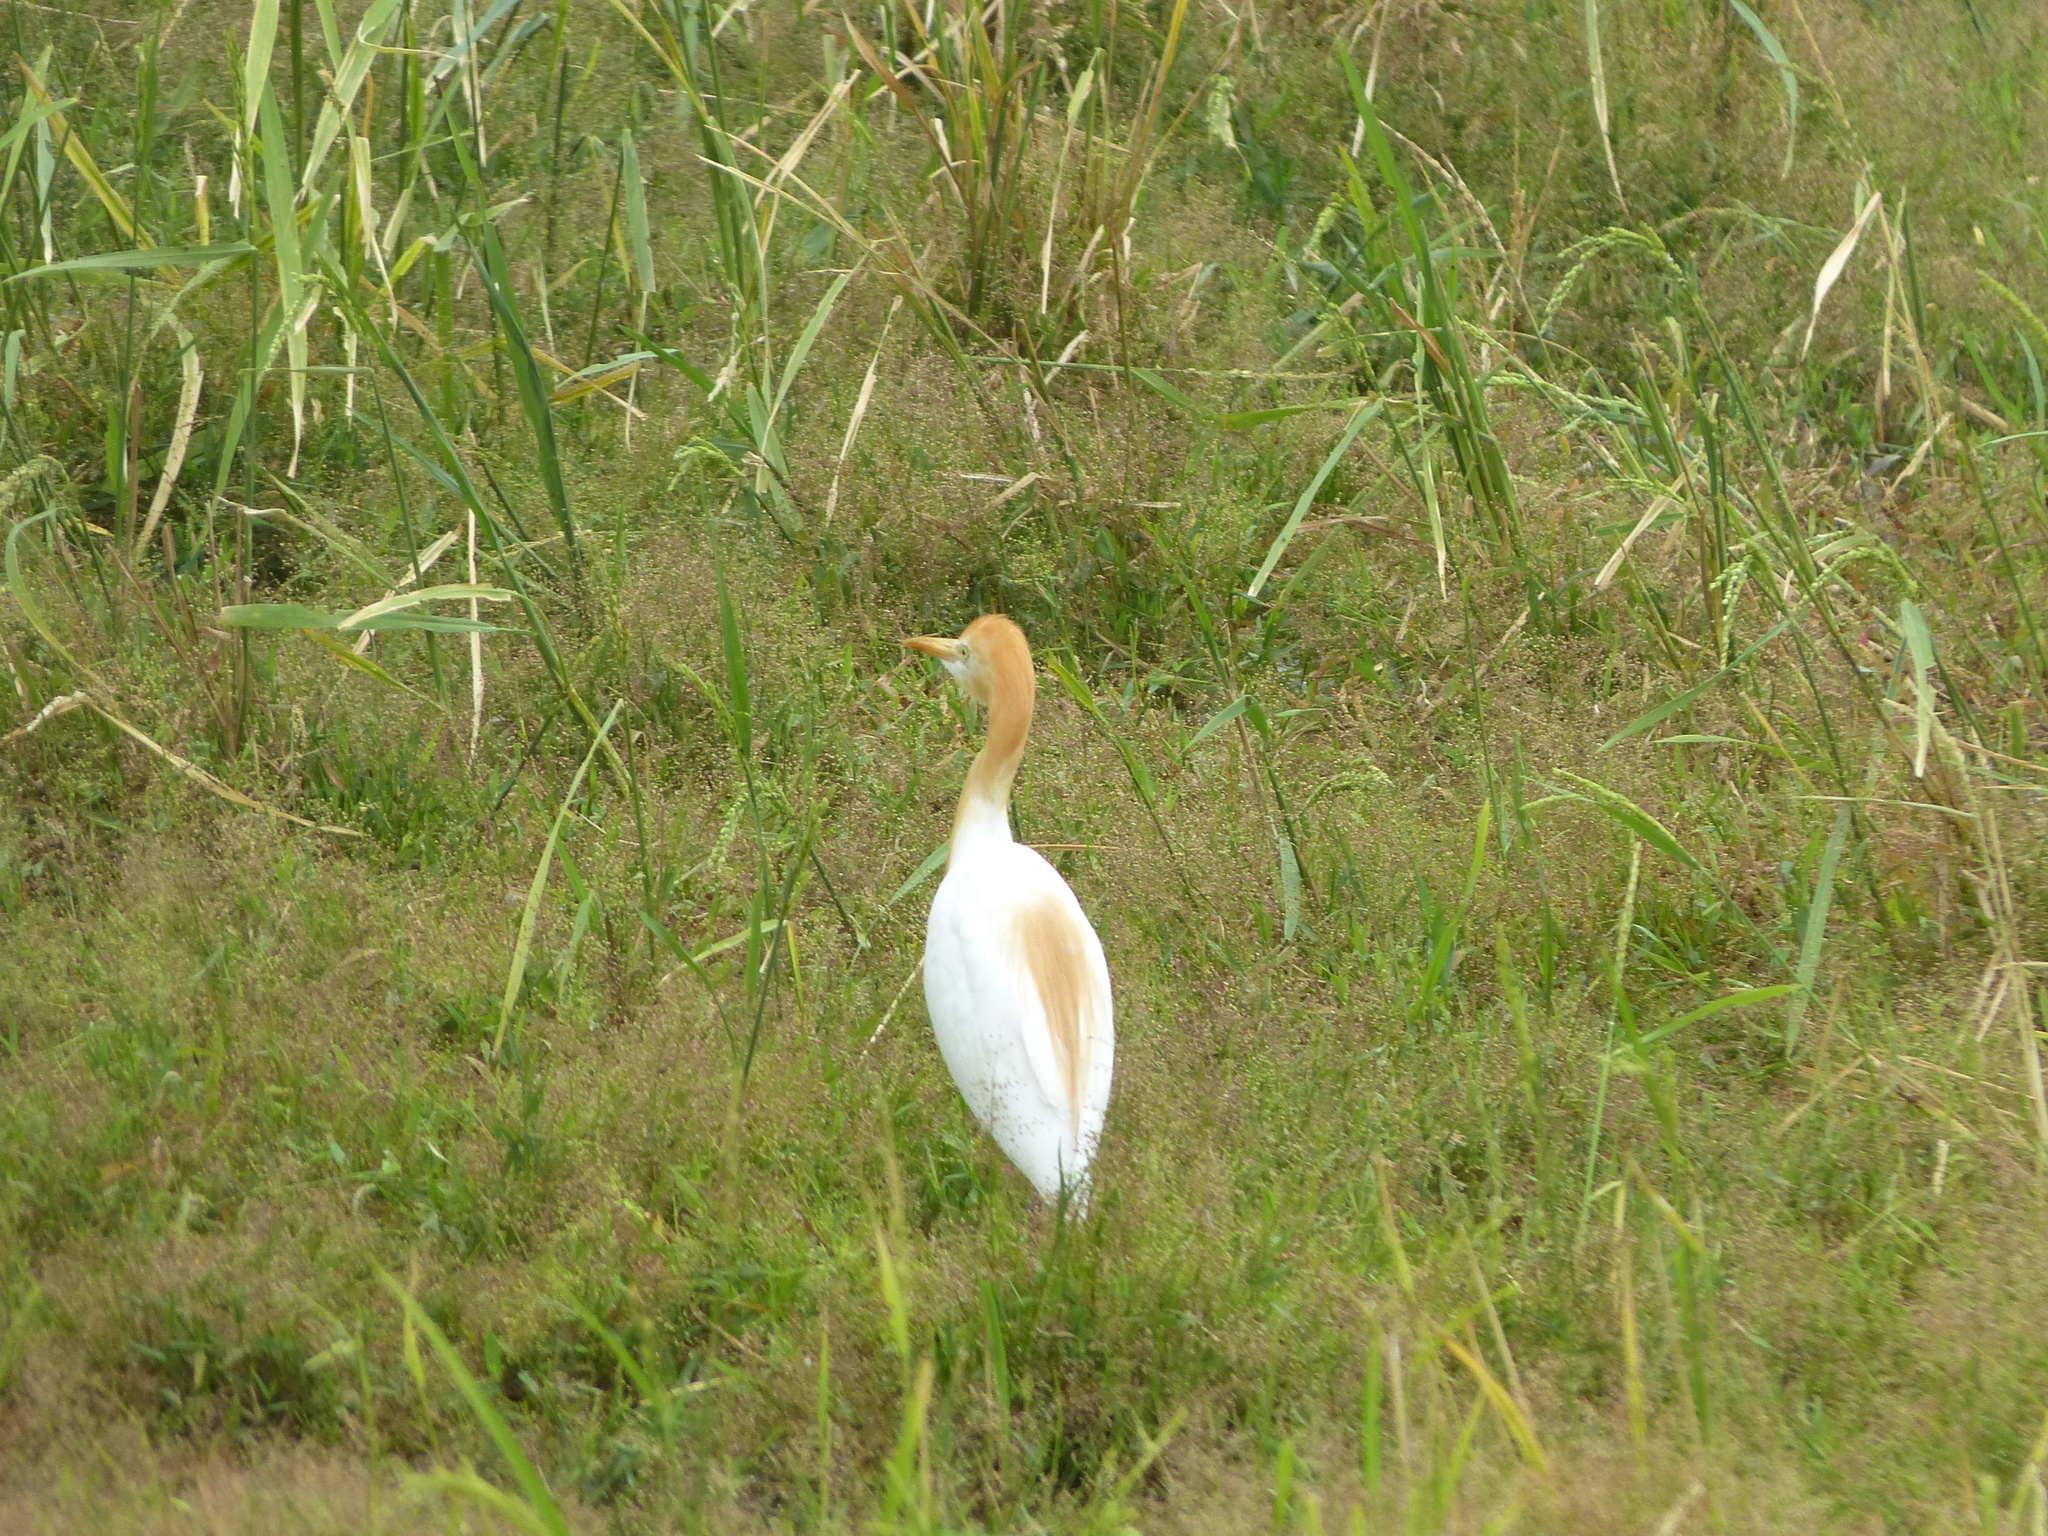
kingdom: Animalia
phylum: Chordata
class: Aves
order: Pelecaniformes
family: Ardeidae
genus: Bubulcus
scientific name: Bubulcus coromandus
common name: Eastern cattle egret
